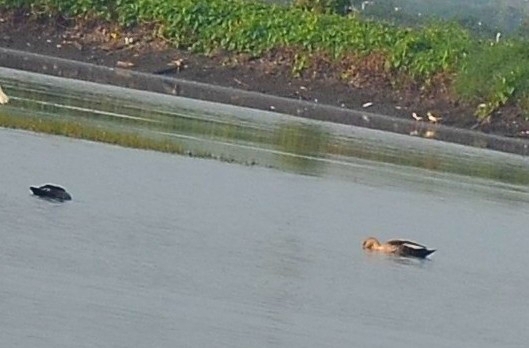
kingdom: Animalia
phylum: Chordata
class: Aves
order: Anseriformes
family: Anatidae
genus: Anas
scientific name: Anas poecilorhyncha
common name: Indian spot-billed duck
